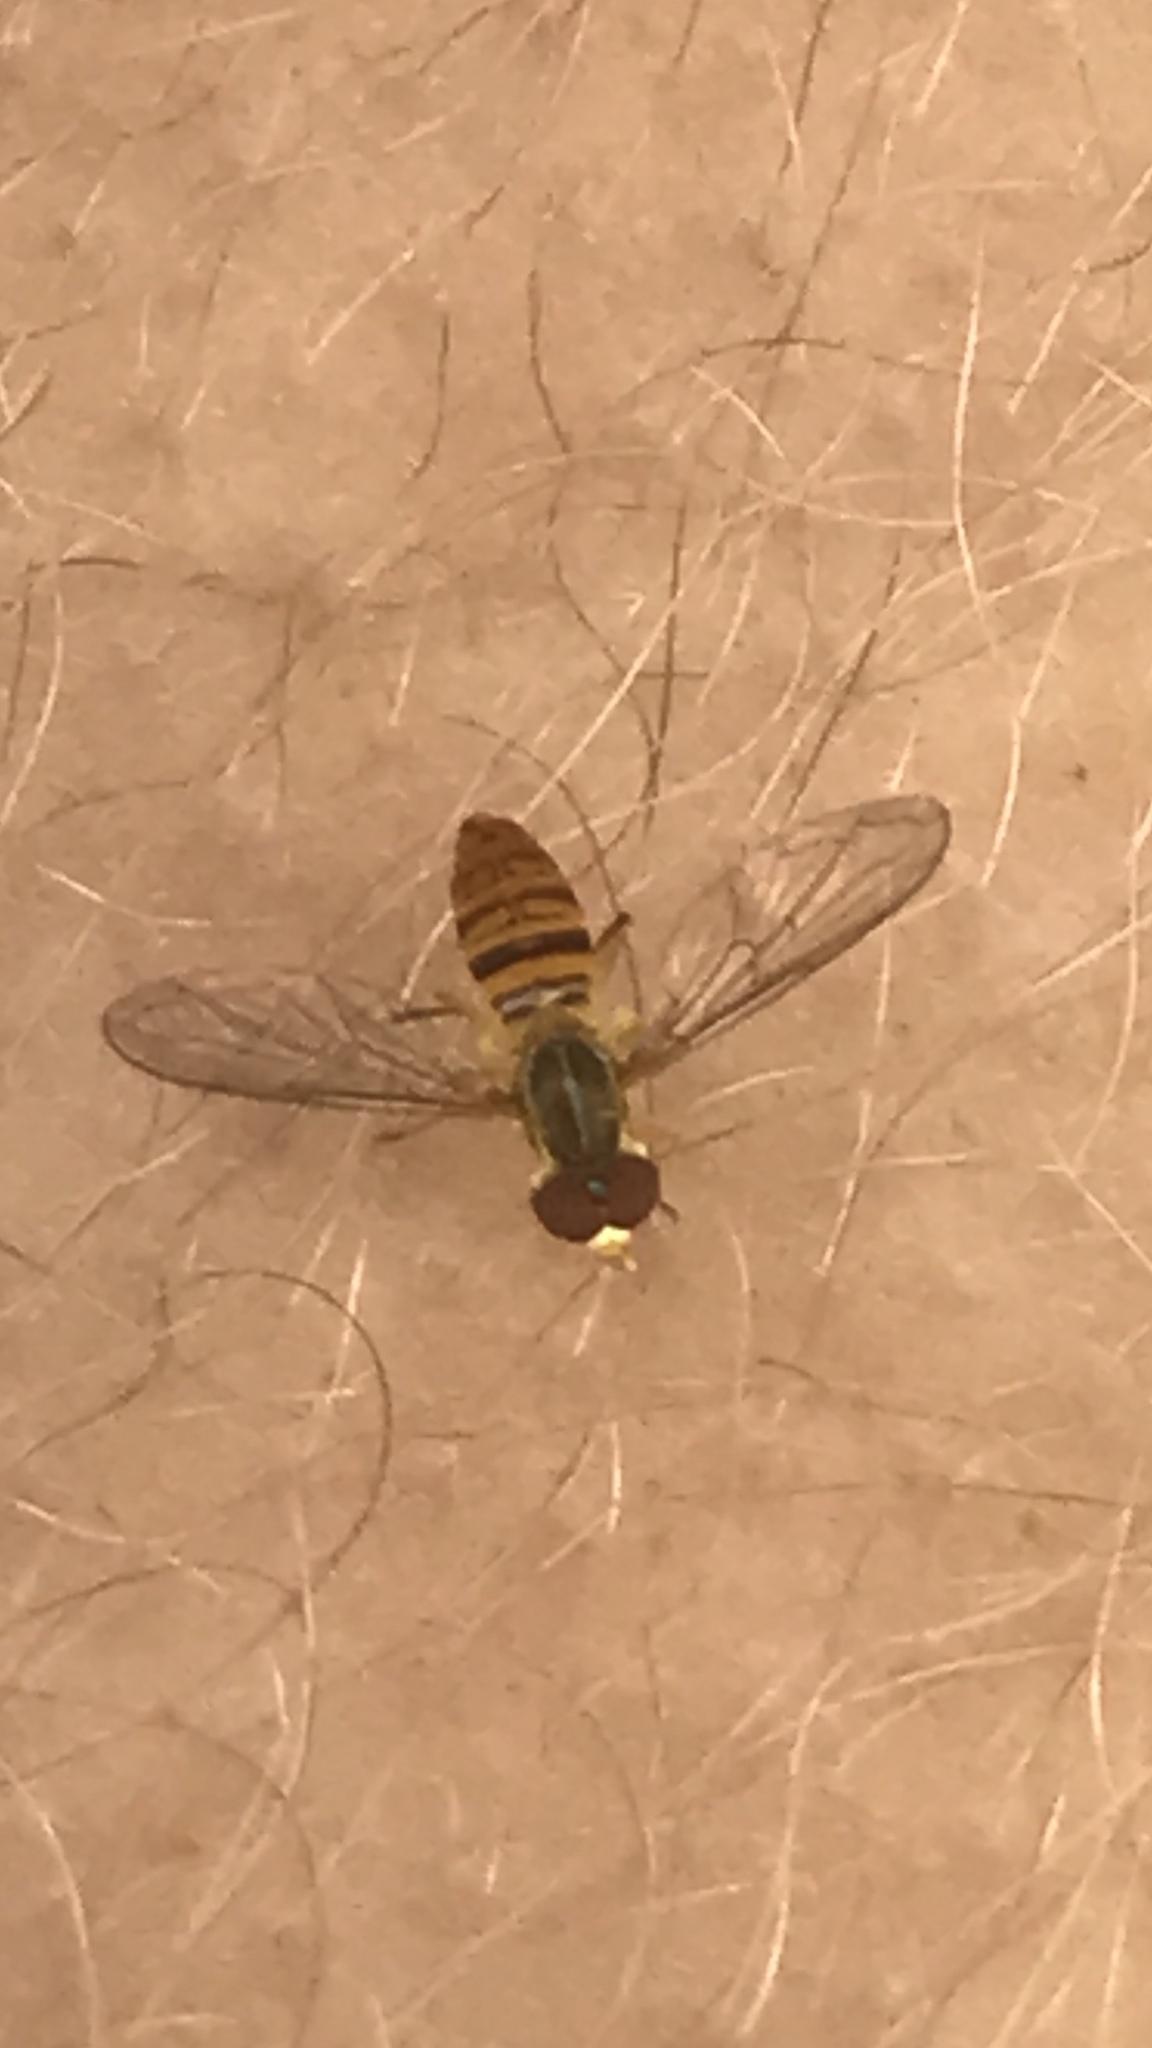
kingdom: Animalia
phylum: Arthropoda
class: Insecta
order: Diptera
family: Syrphidae
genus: Toxomerus
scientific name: Toxomerus politus
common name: Maize calligrapher
